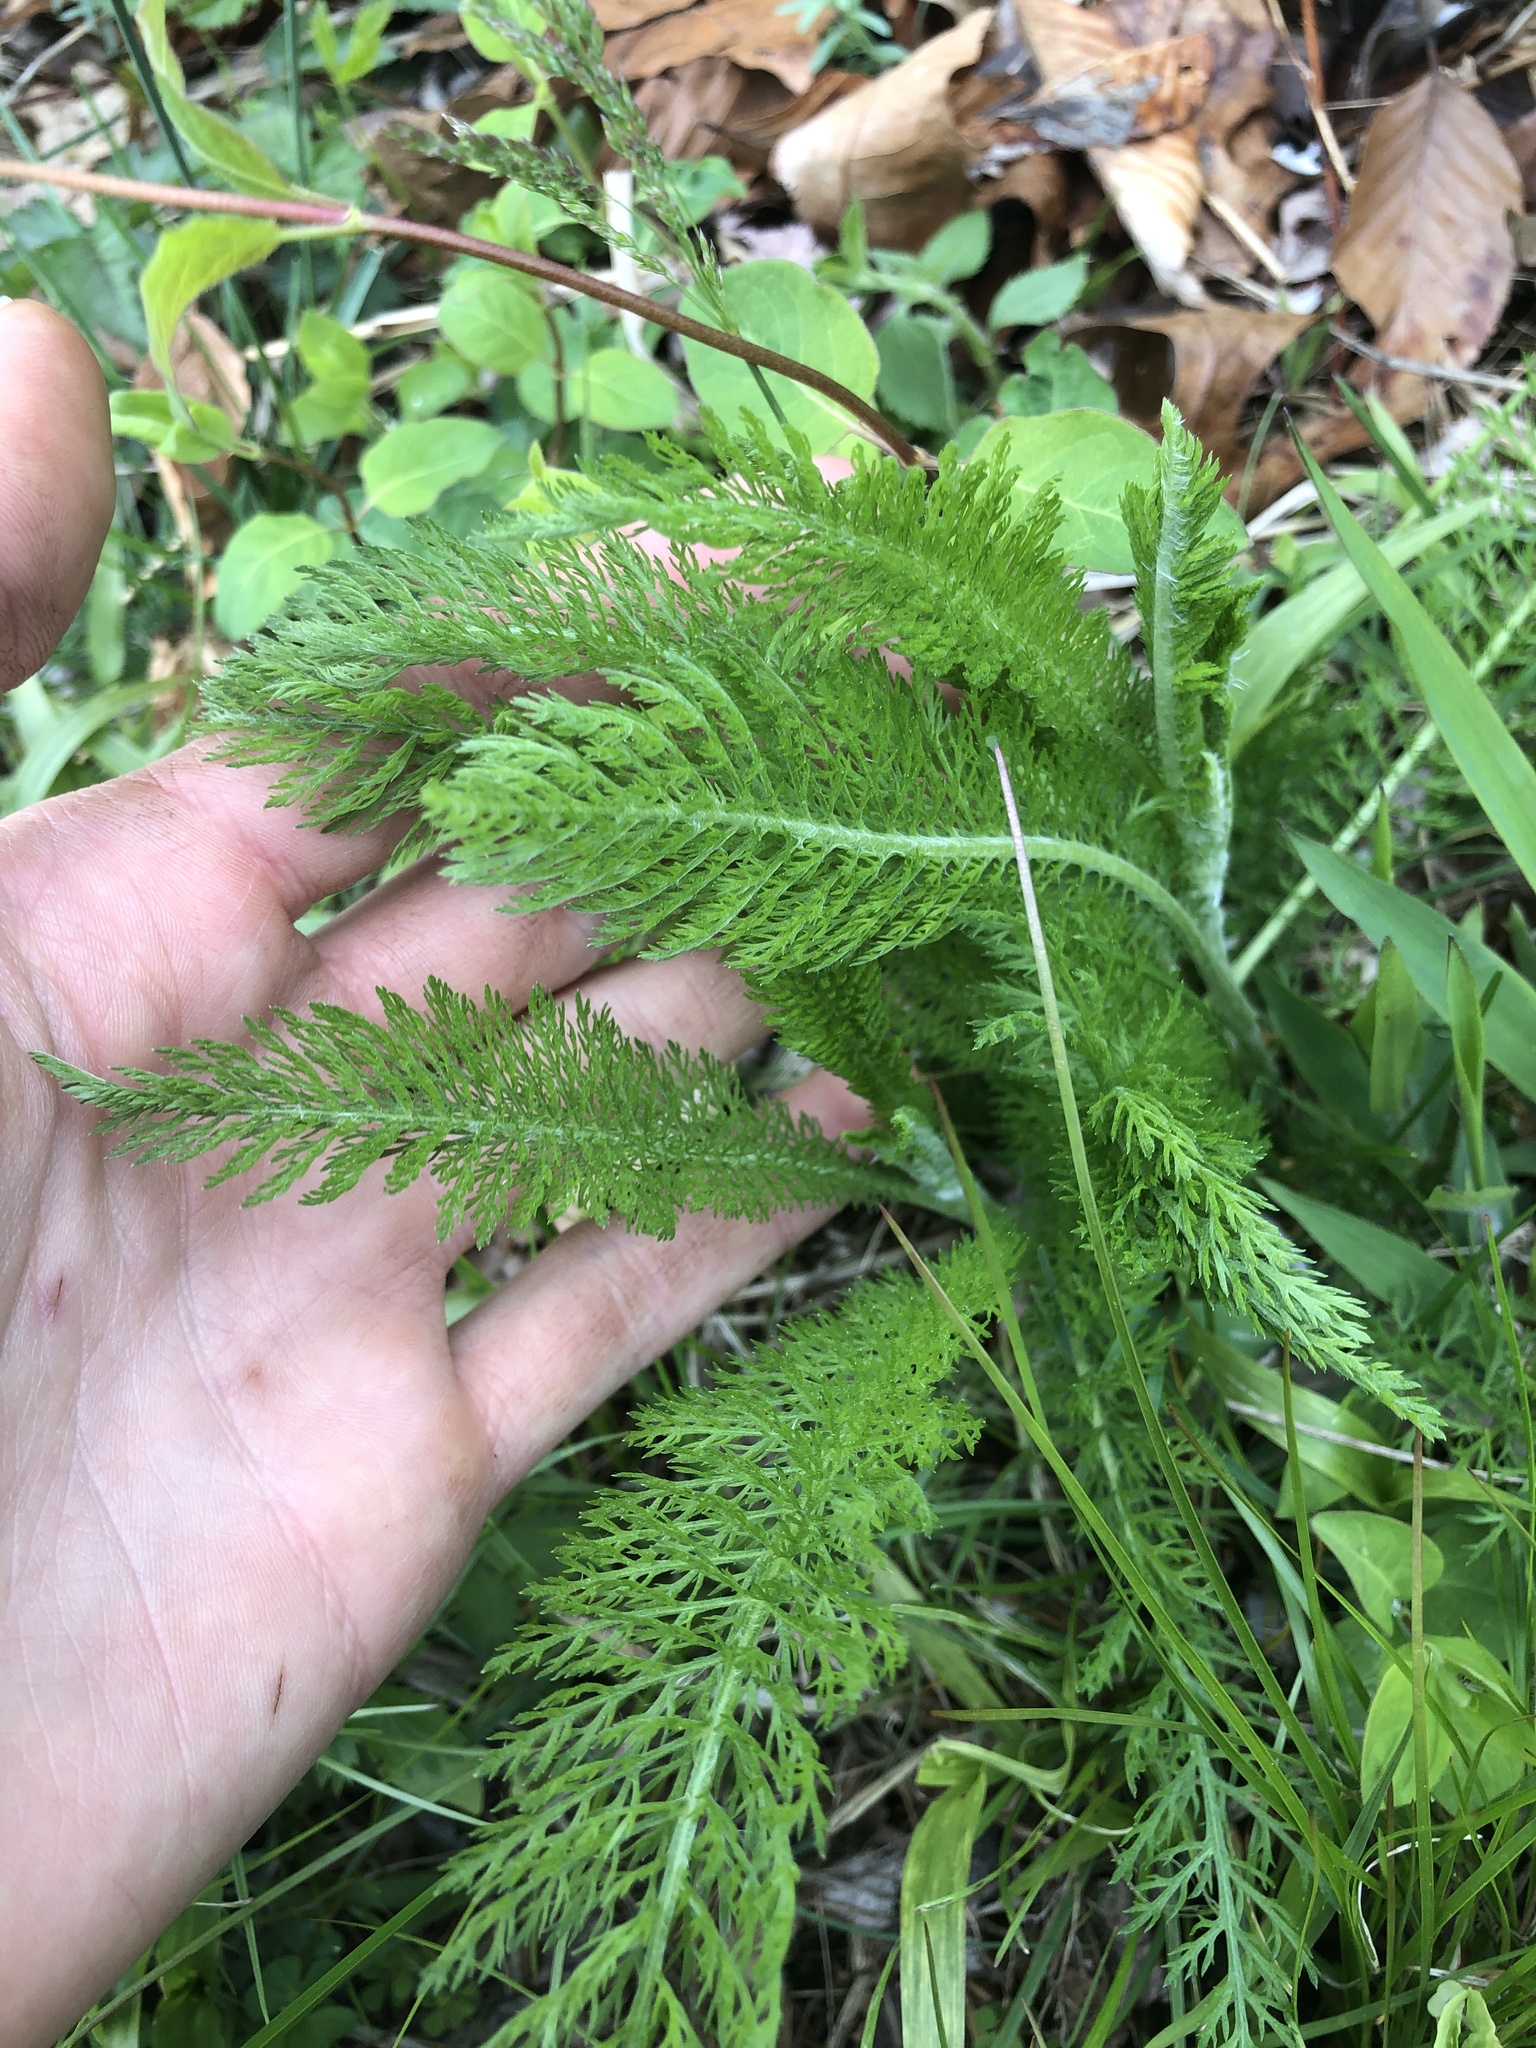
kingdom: Plantae
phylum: Tracheophyta
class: Magnoliopsida
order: Asterales
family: Asteraceae
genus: Achillea
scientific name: Achillea millefolium
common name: Yarrow
